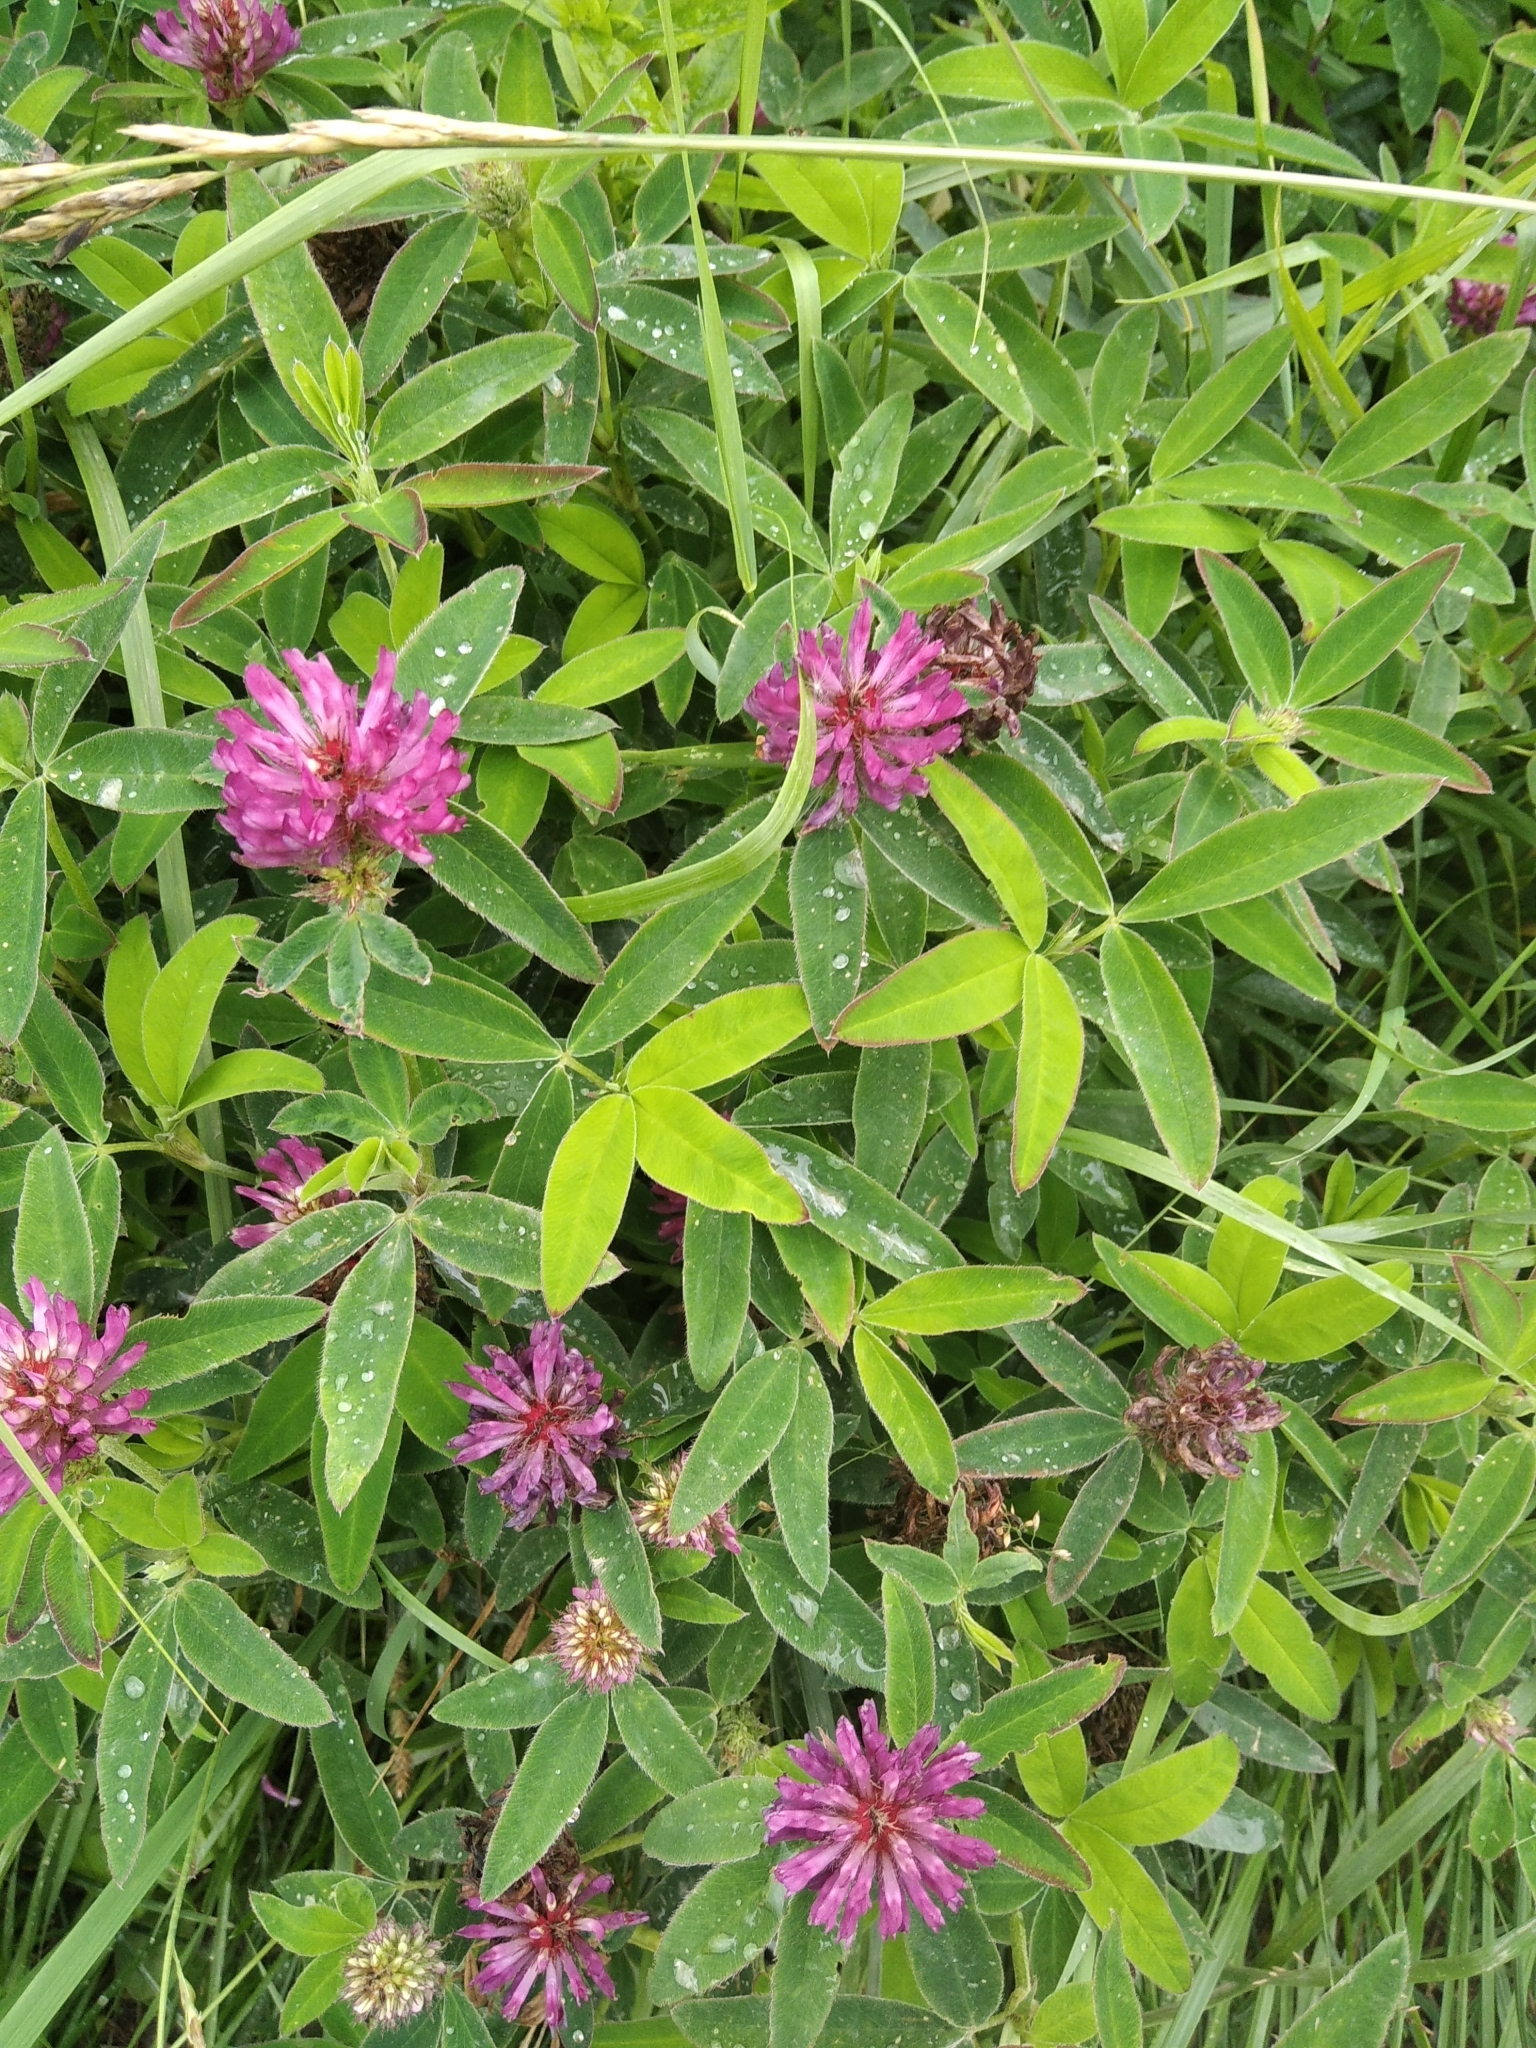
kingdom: Plantae
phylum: Tracheophyta
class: Magnoliopsida
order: Fabales
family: Fabaceae
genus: Trifolium
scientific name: Trifolium medium
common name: Zigzag clover
